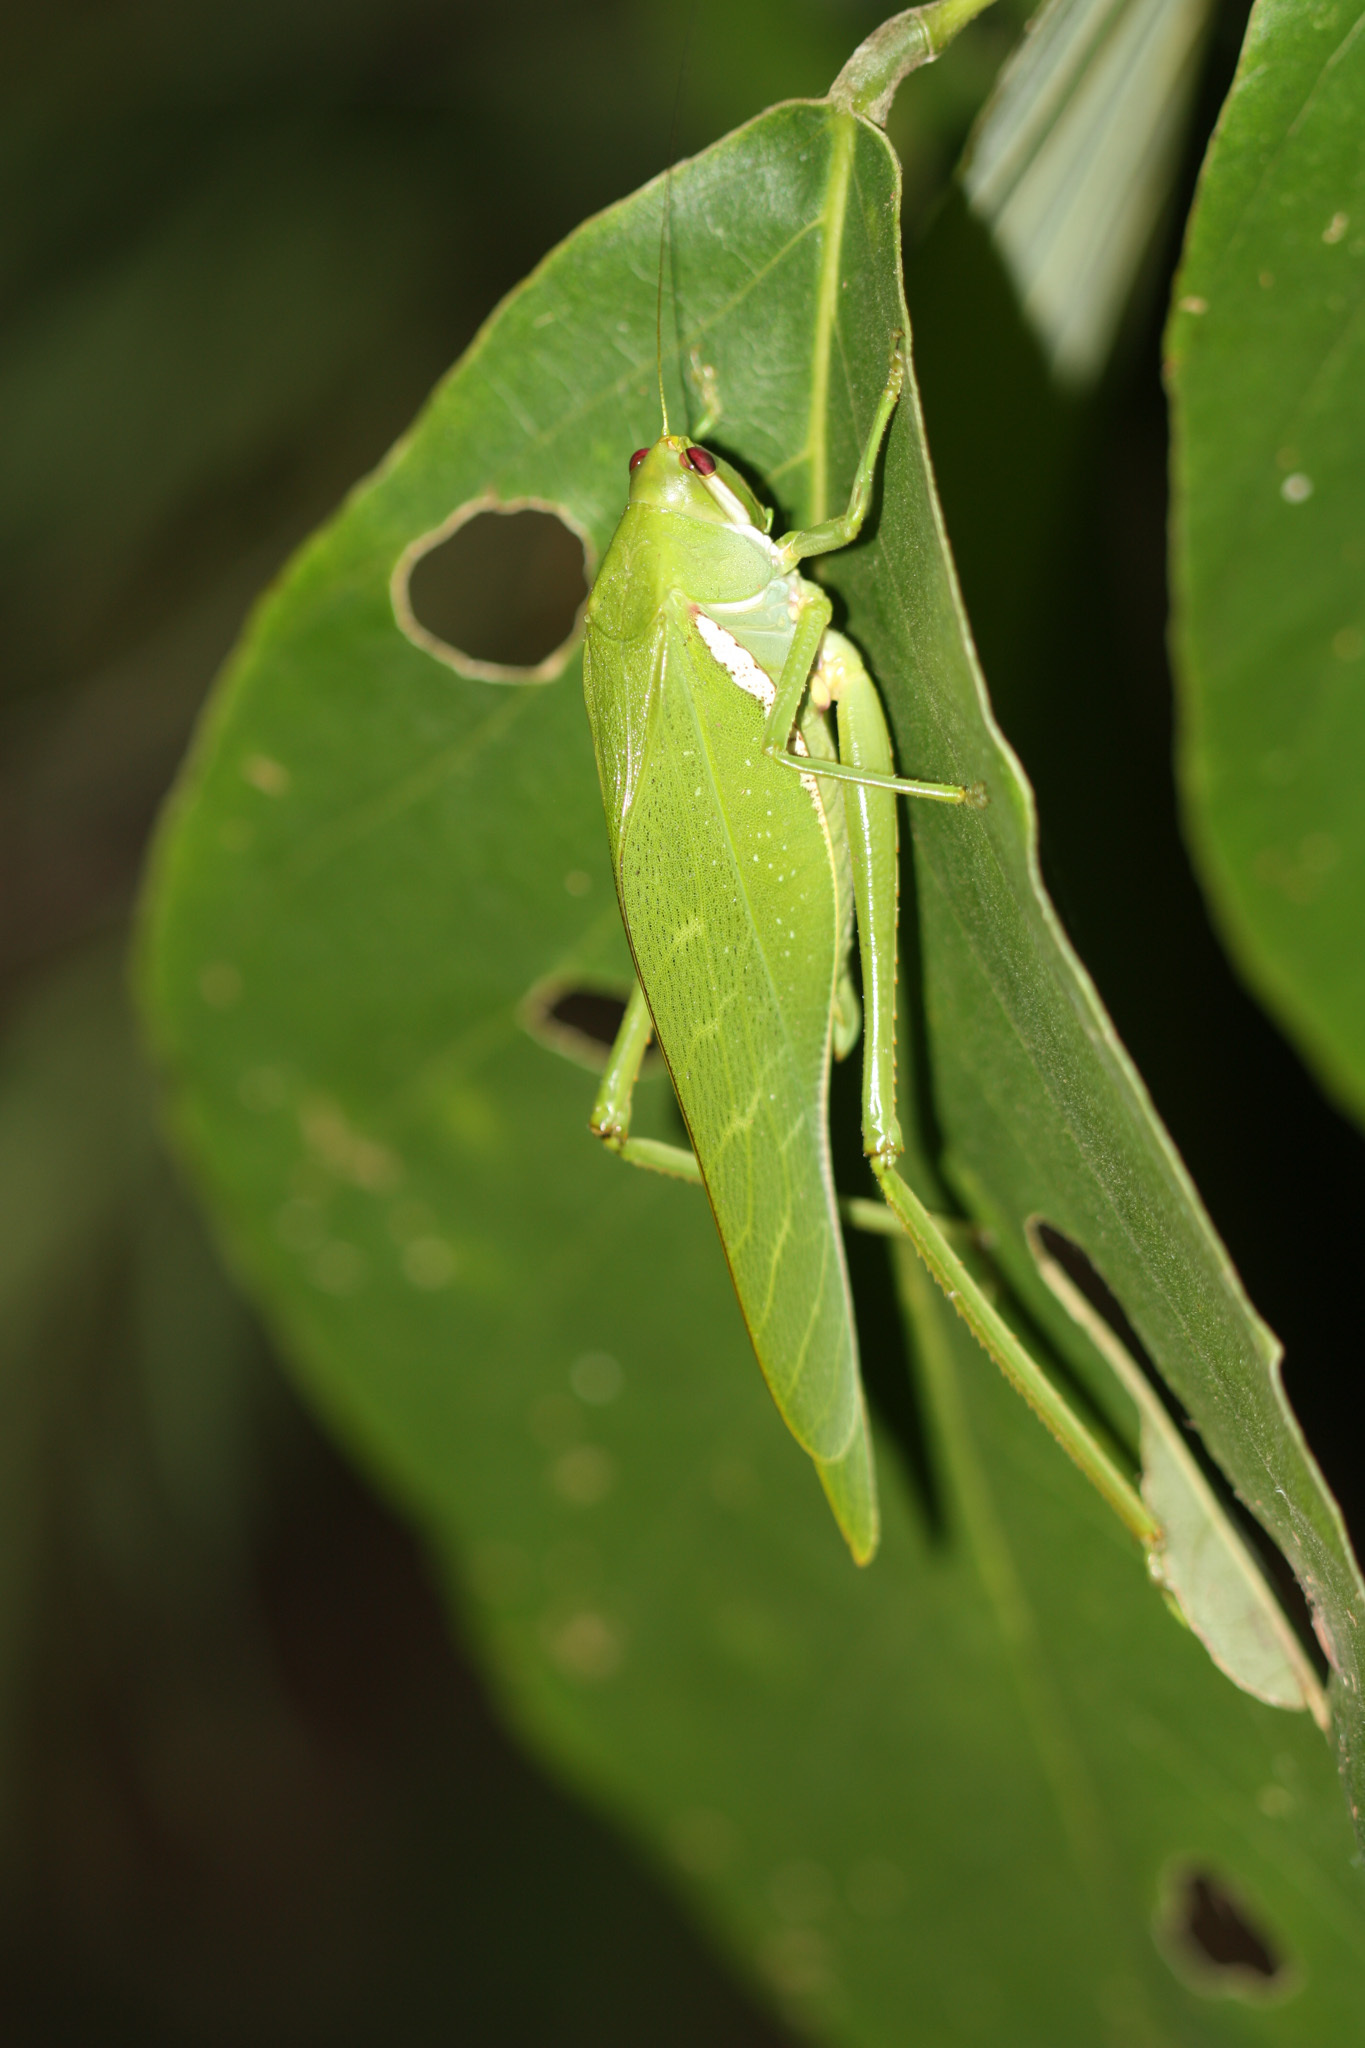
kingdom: Animalia
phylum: Arthropoda
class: Insecta
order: Orthoptera
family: Tettigoniidae
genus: Philophyllia
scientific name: Philophyllia guttulata
